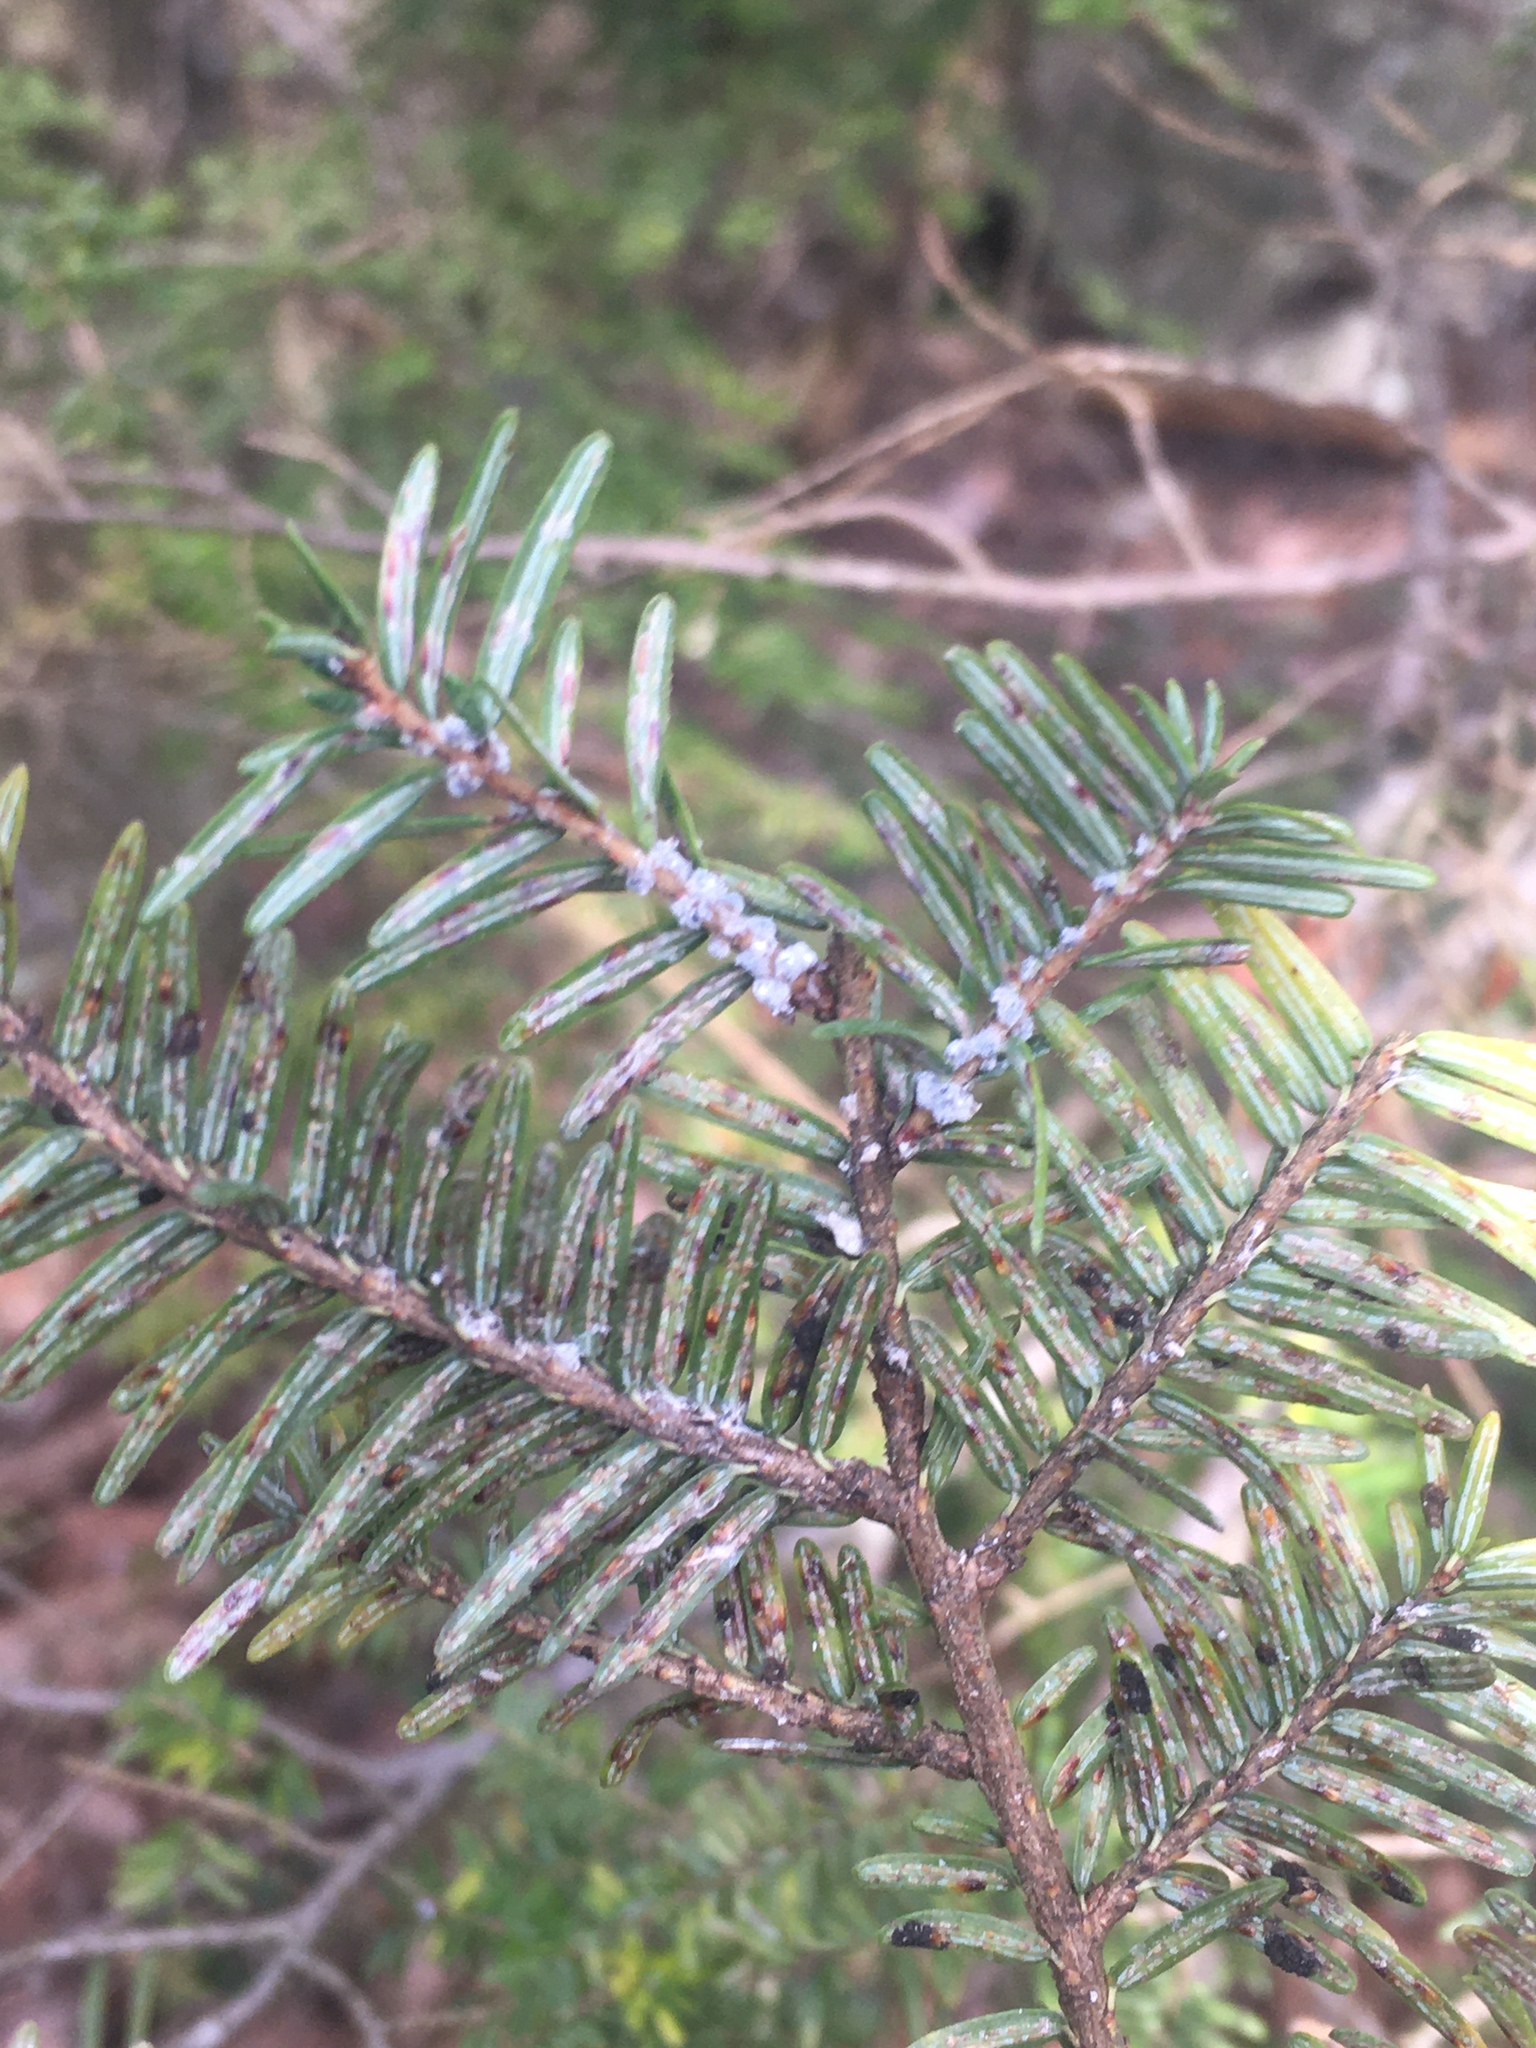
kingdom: Animalia
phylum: Arthropoda
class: Insecta
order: Hemiptera
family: Adelgidae
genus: Adelges
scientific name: Adelges tsugae
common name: Hemlock woolly adelgid
